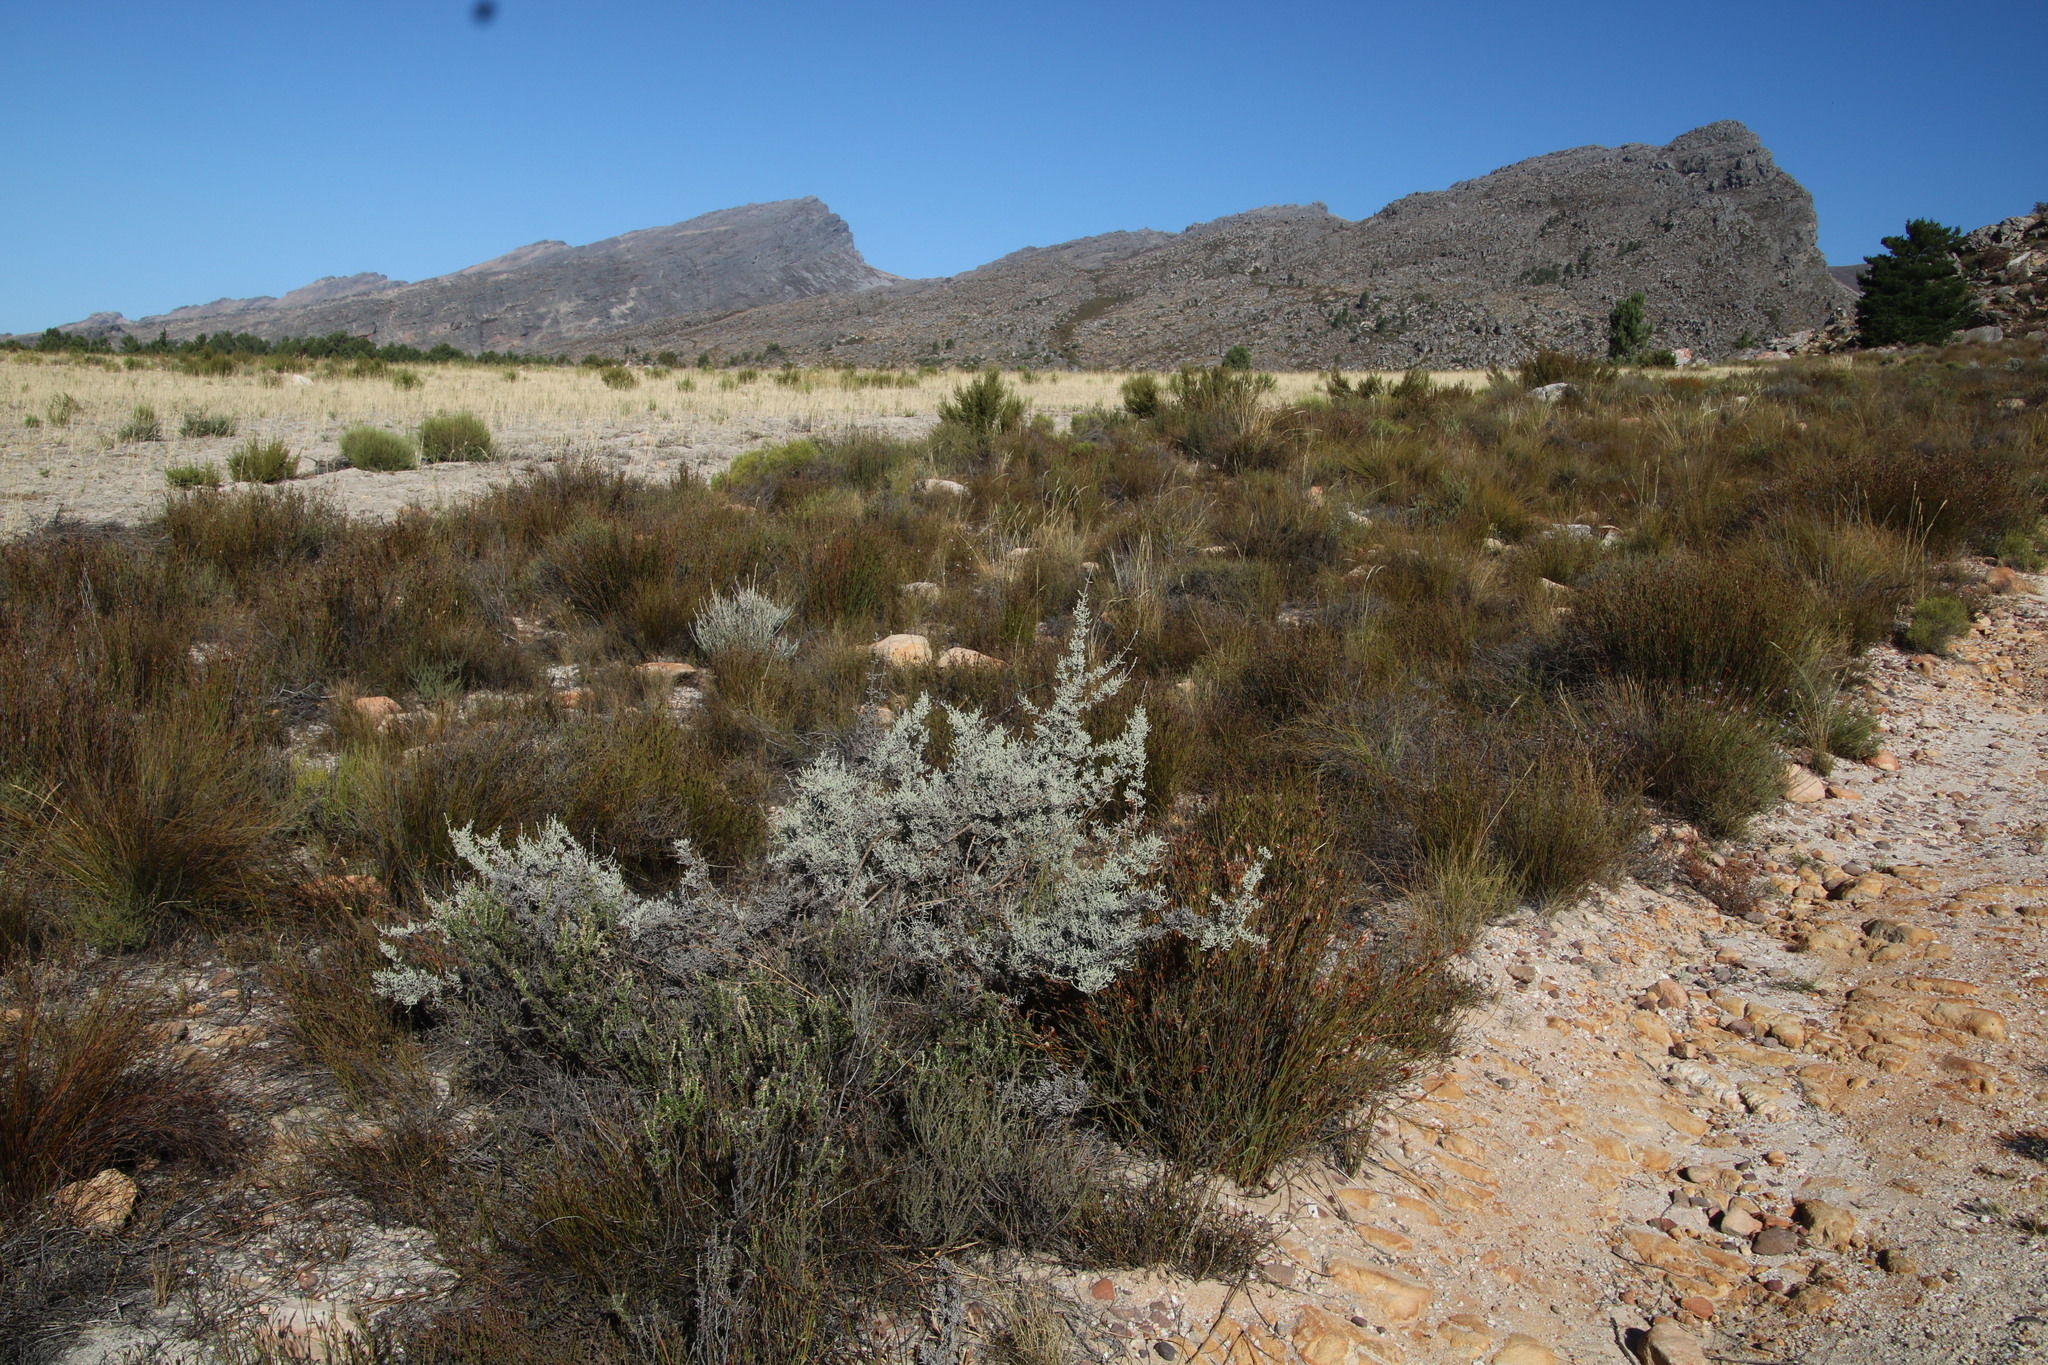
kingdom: Plantae
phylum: Tracheophyta
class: Magnoliopsida
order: Asterales
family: Asteraceae
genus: Seriphium
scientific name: Seriphium plumosum
